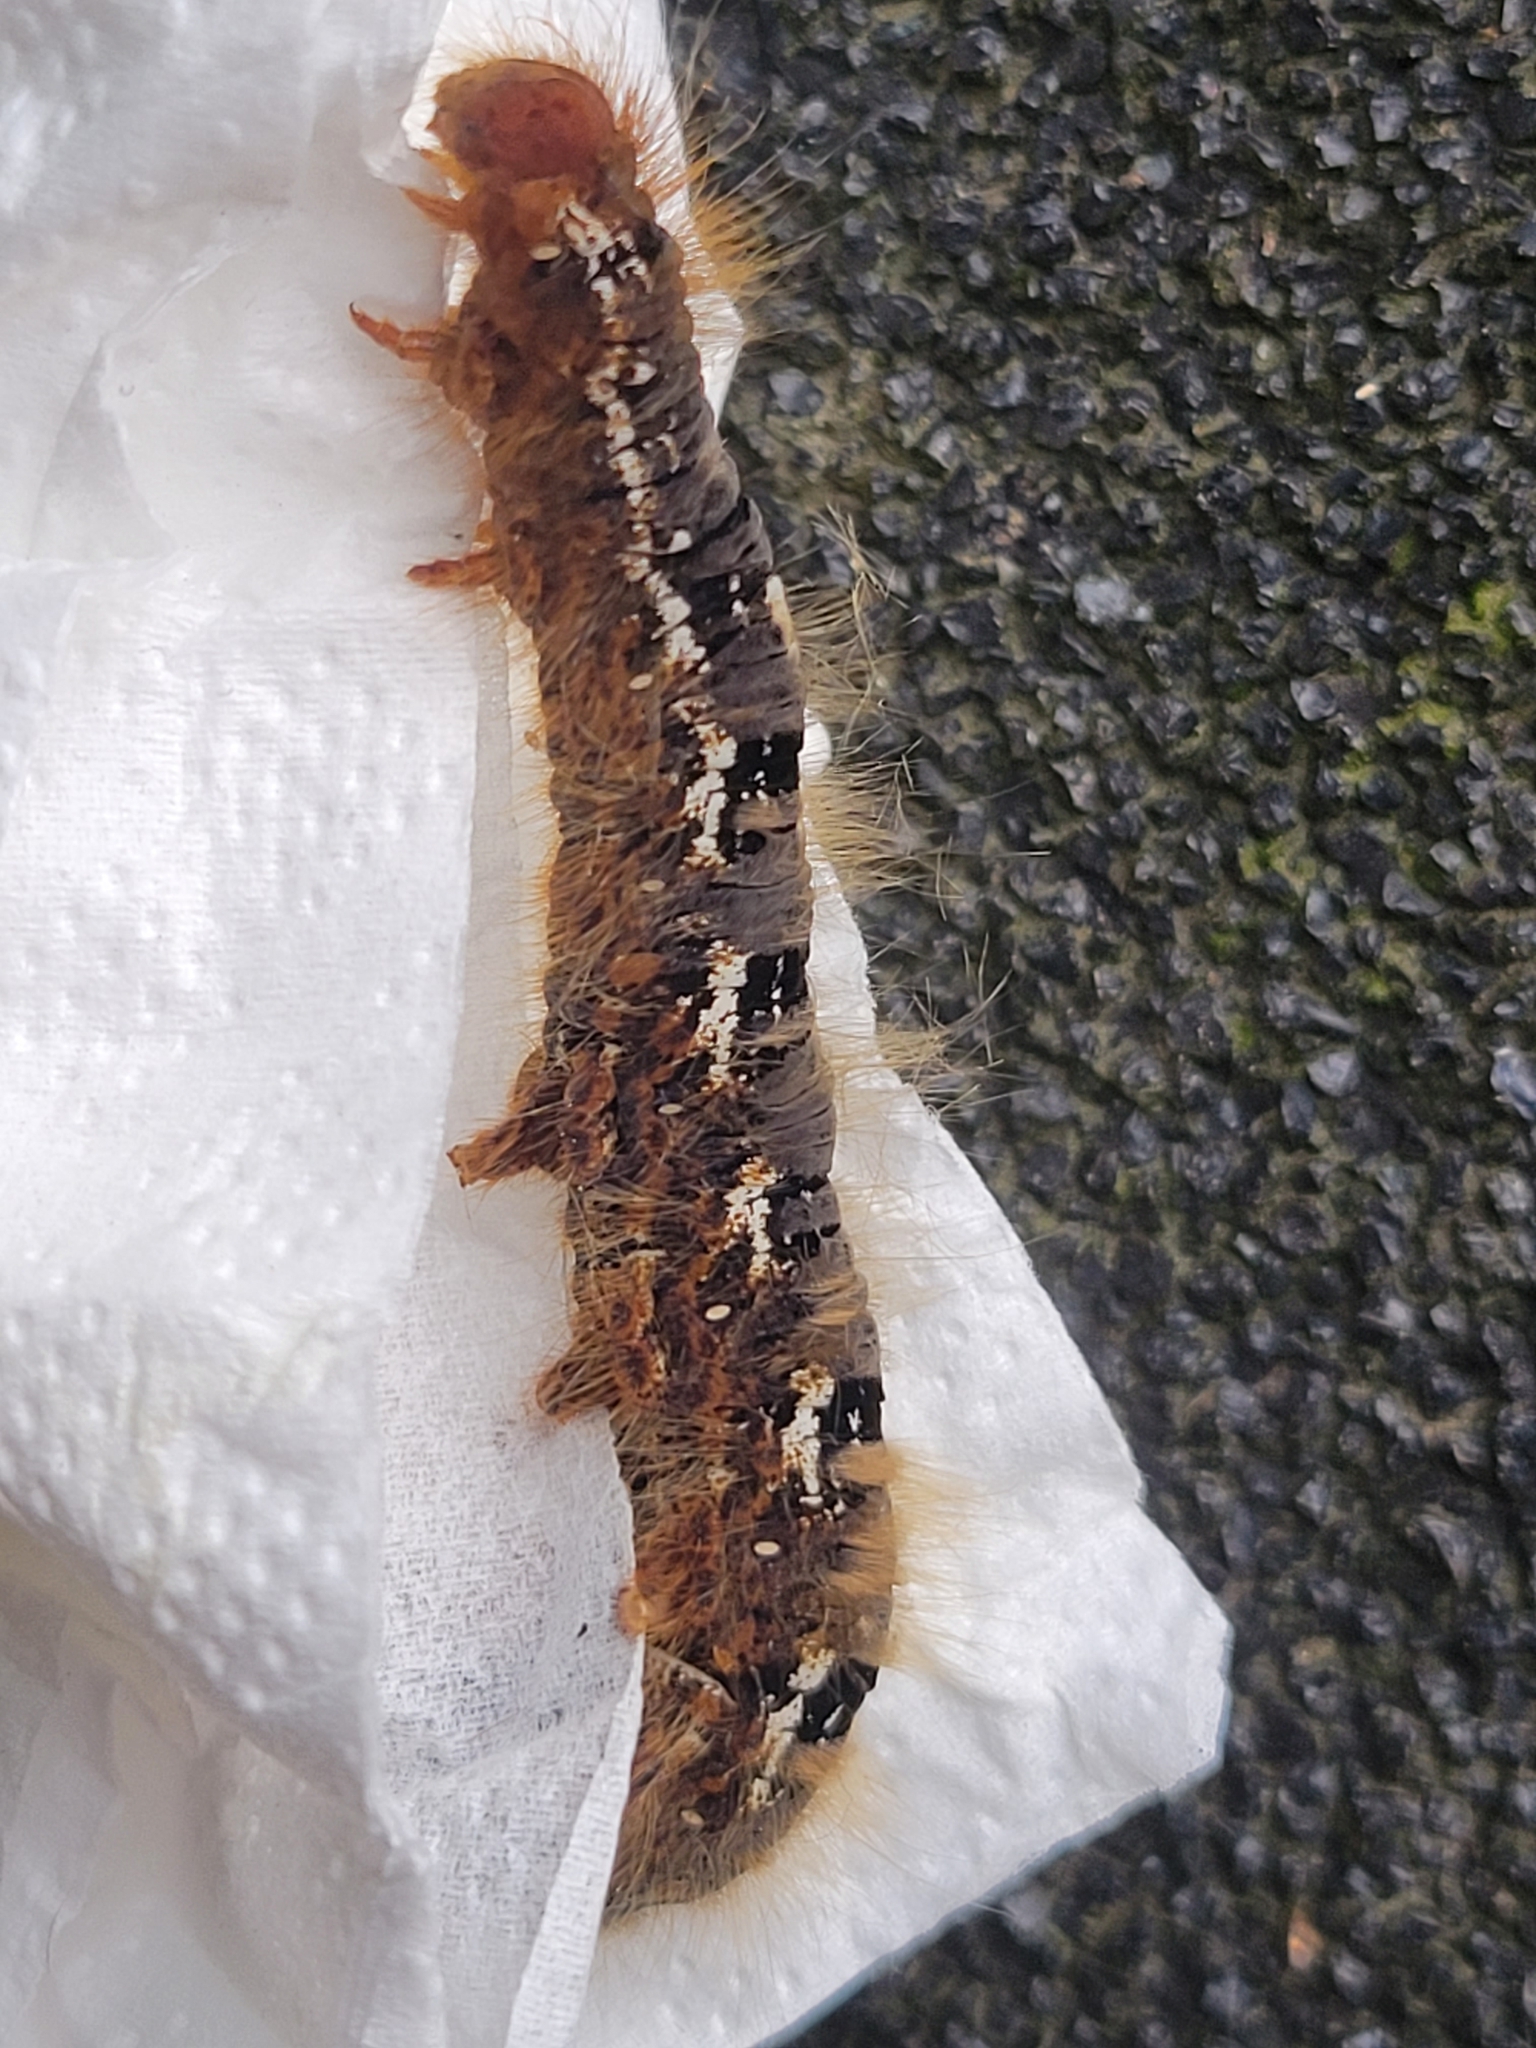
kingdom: Animalia
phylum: Arthropoda
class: Insecta
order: Lepidoptera
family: Lasiocampidae
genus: Lasiocampa
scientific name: Lasiocampa quercus
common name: Oak eggar
